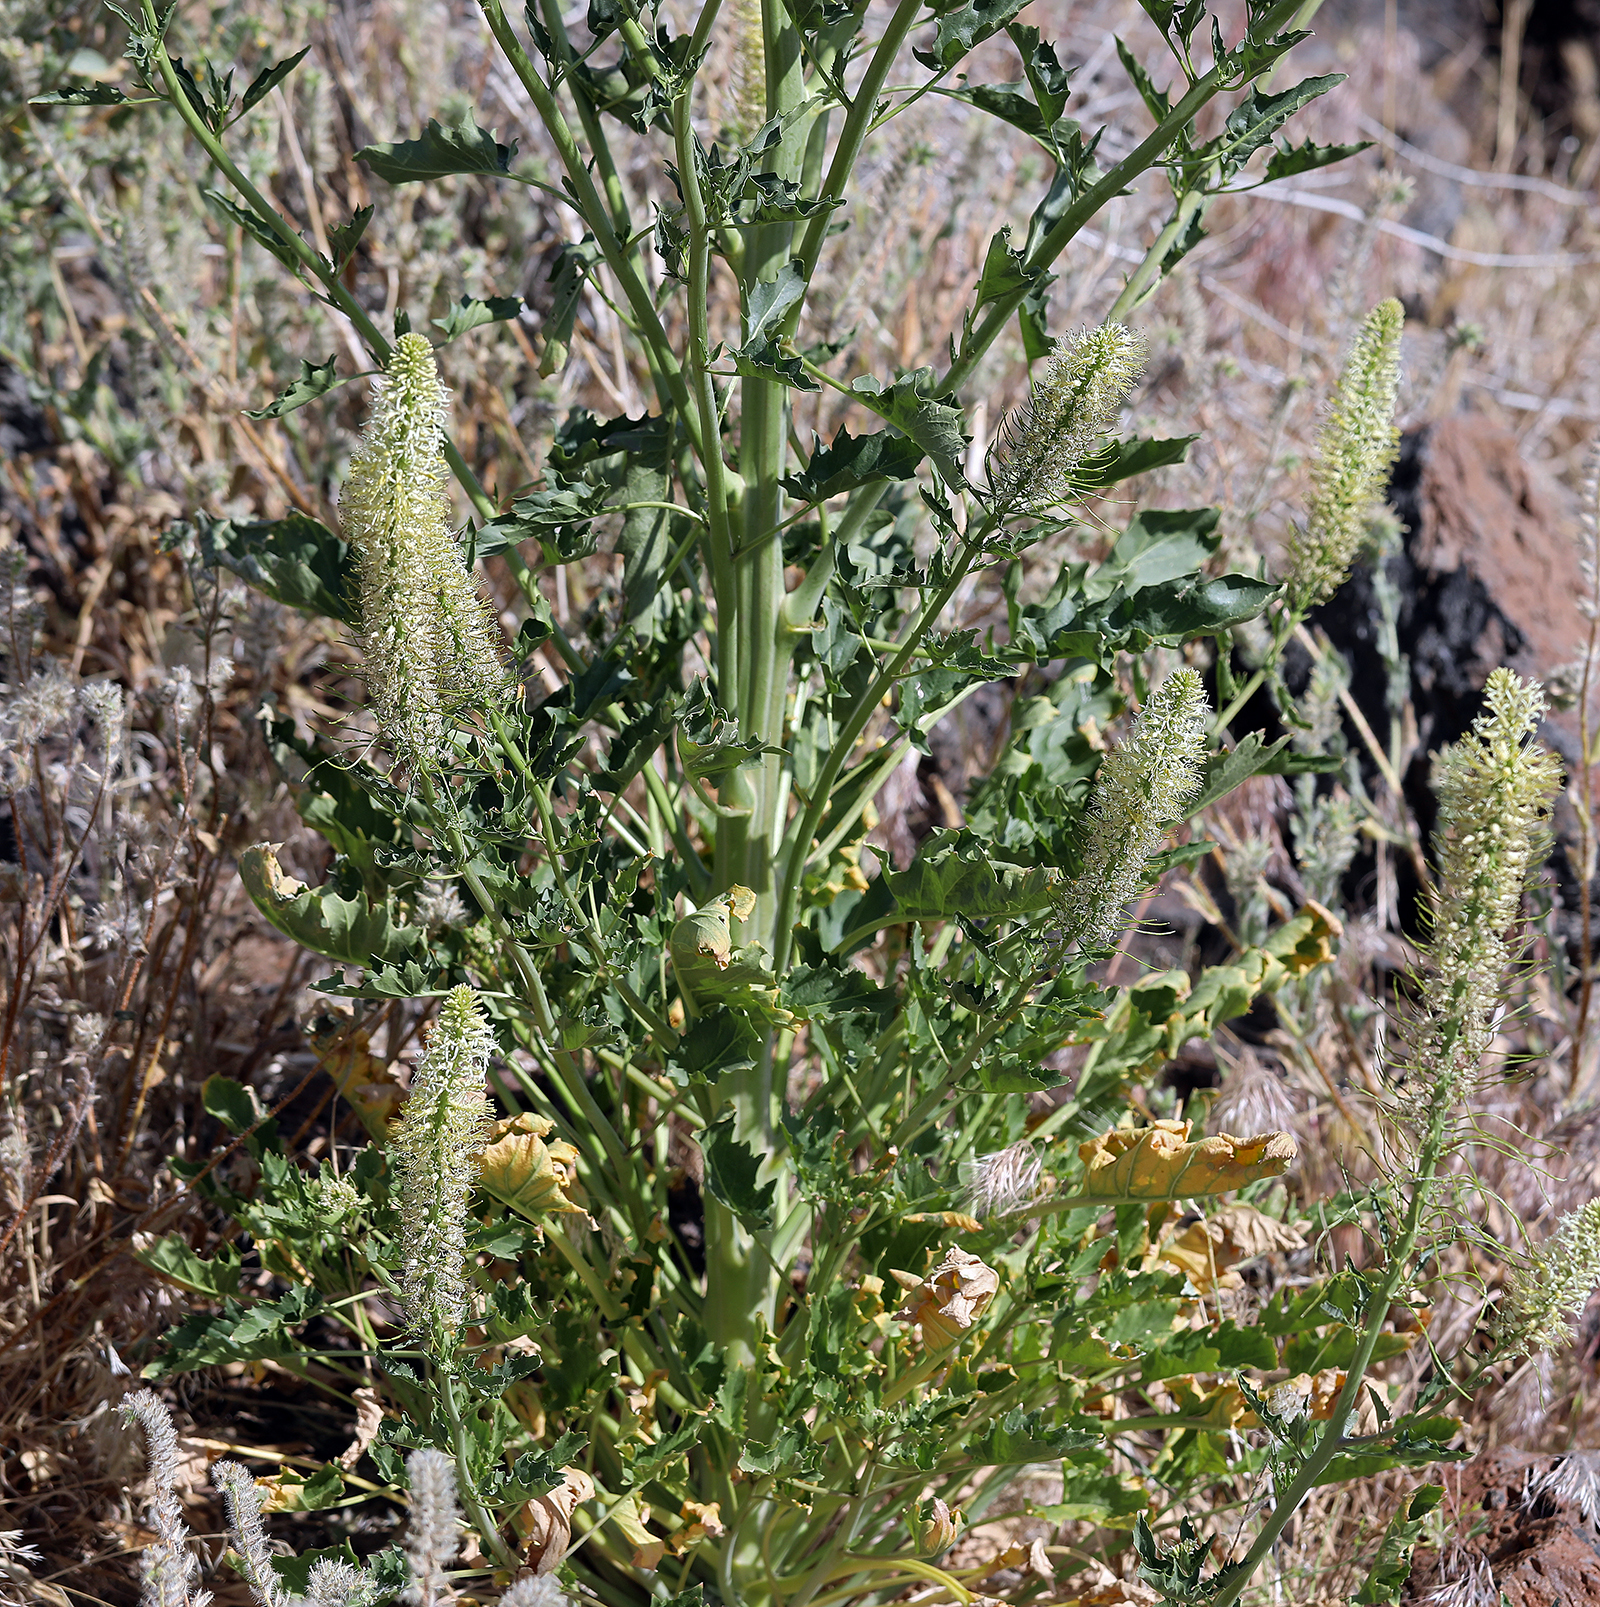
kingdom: Plantae
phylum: Tracheophyta
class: Magnoliopsida
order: Brassicales
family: Brassicaceae
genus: Thelypodium
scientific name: Thelypodium laciniatum
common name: Cut-leaved thelypody
